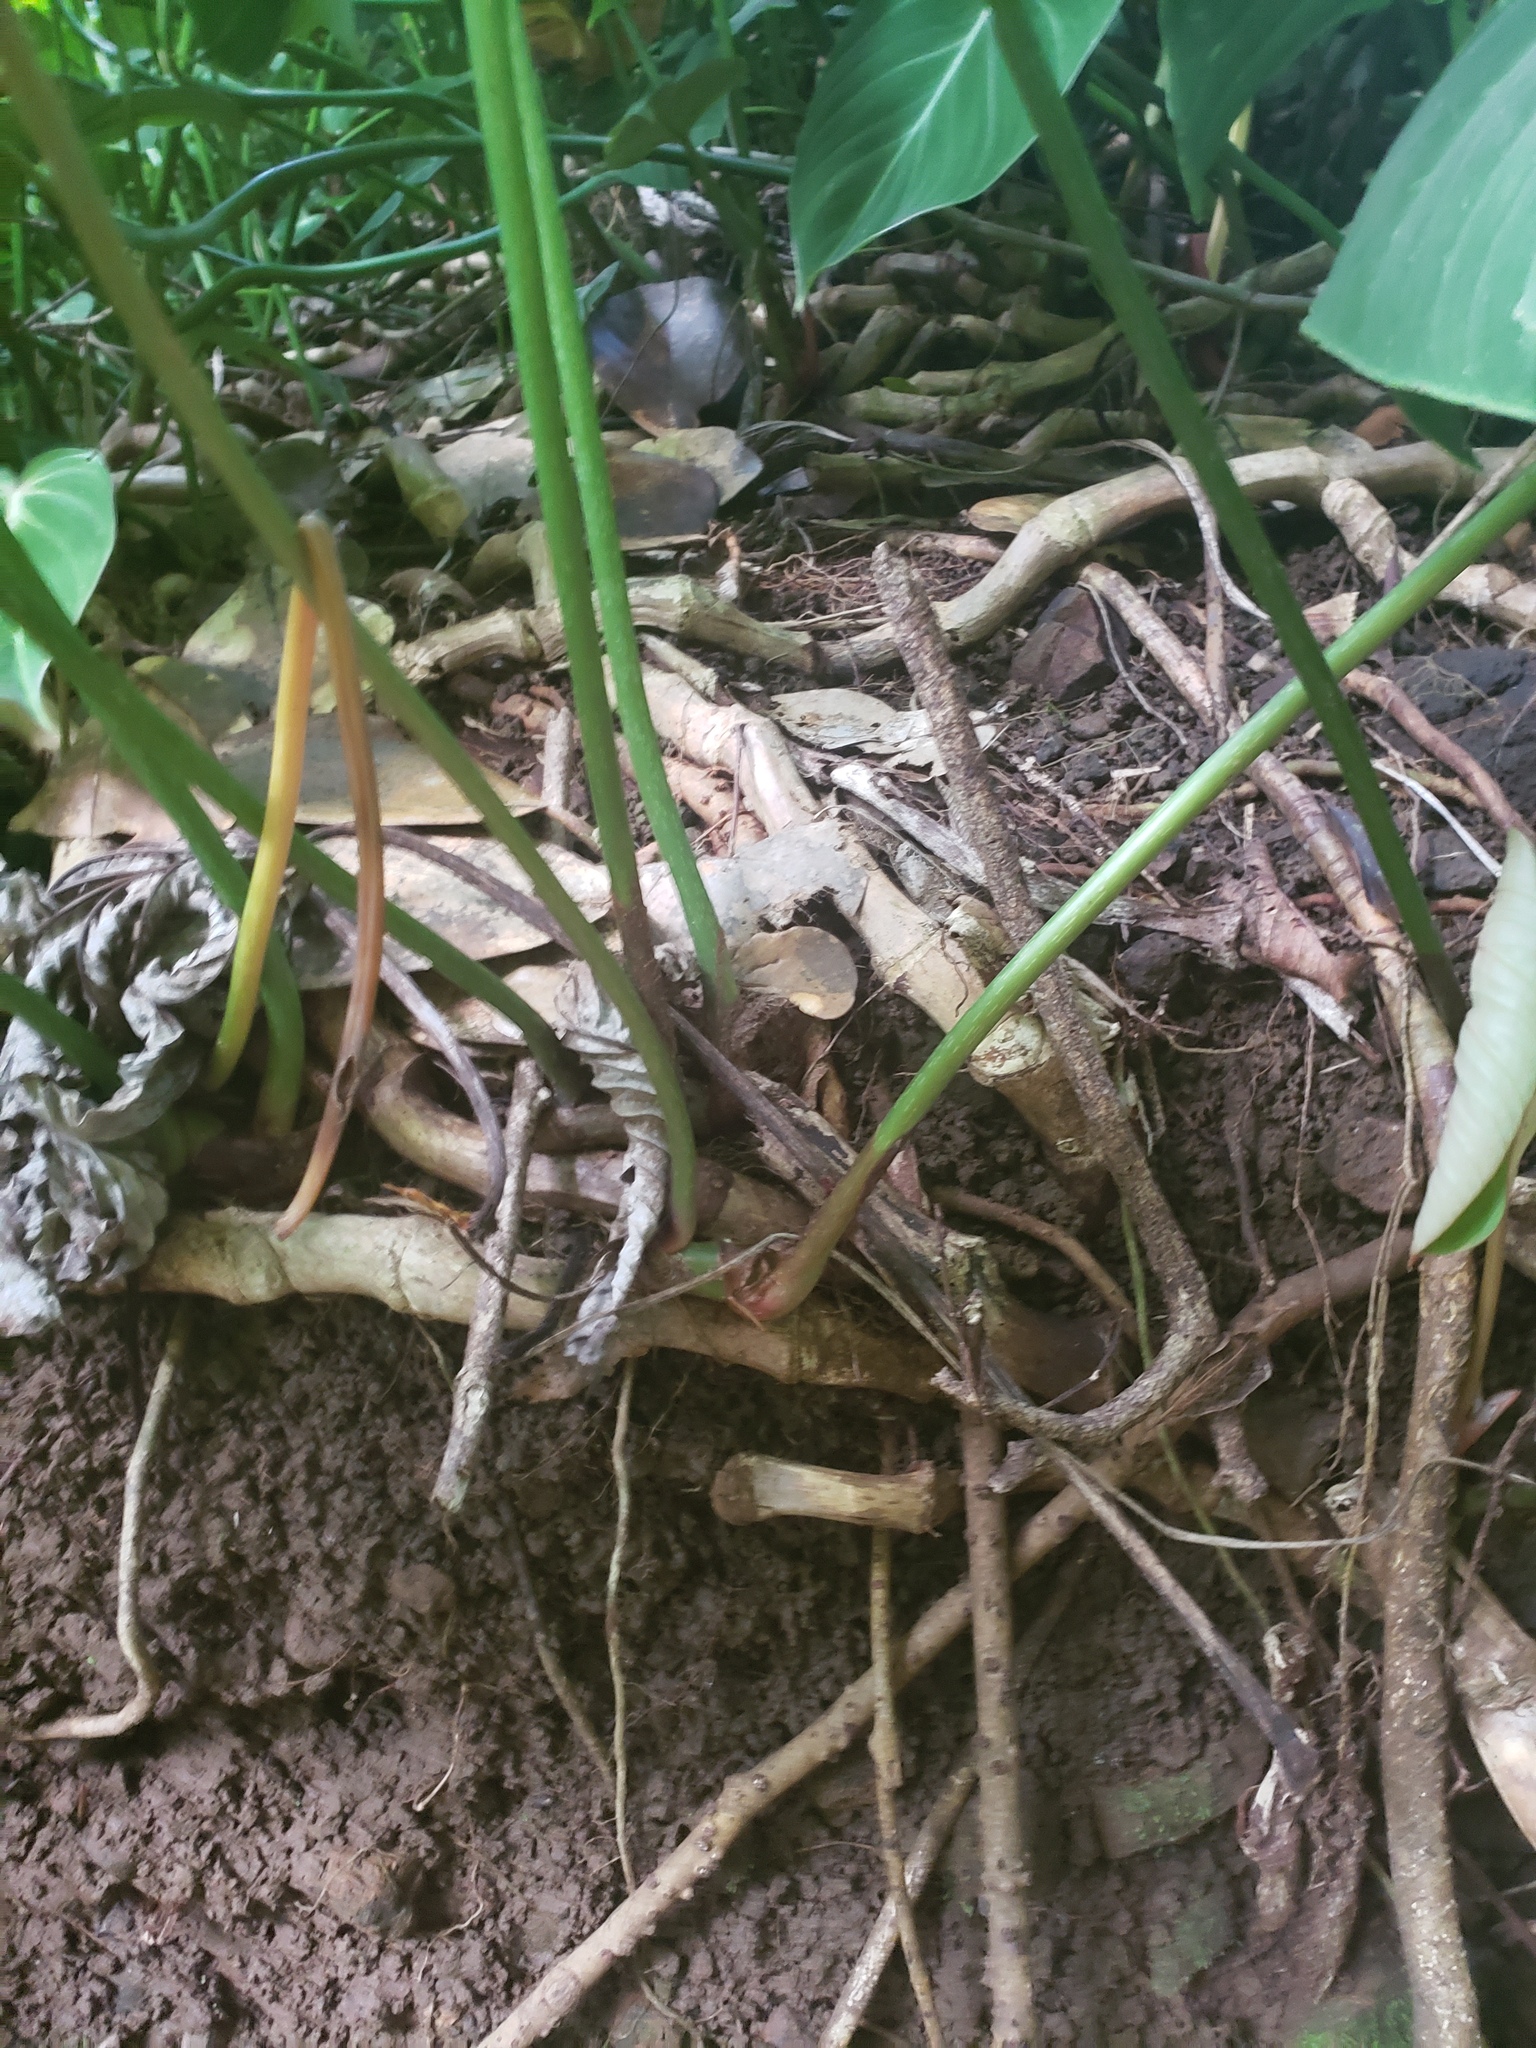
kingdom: Plantae
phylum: Tracheophyta
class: Liliopsida
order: Alismatales
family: Araceae
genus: Philodendron
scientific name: Philodendron hederaceum
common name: Vilevine
